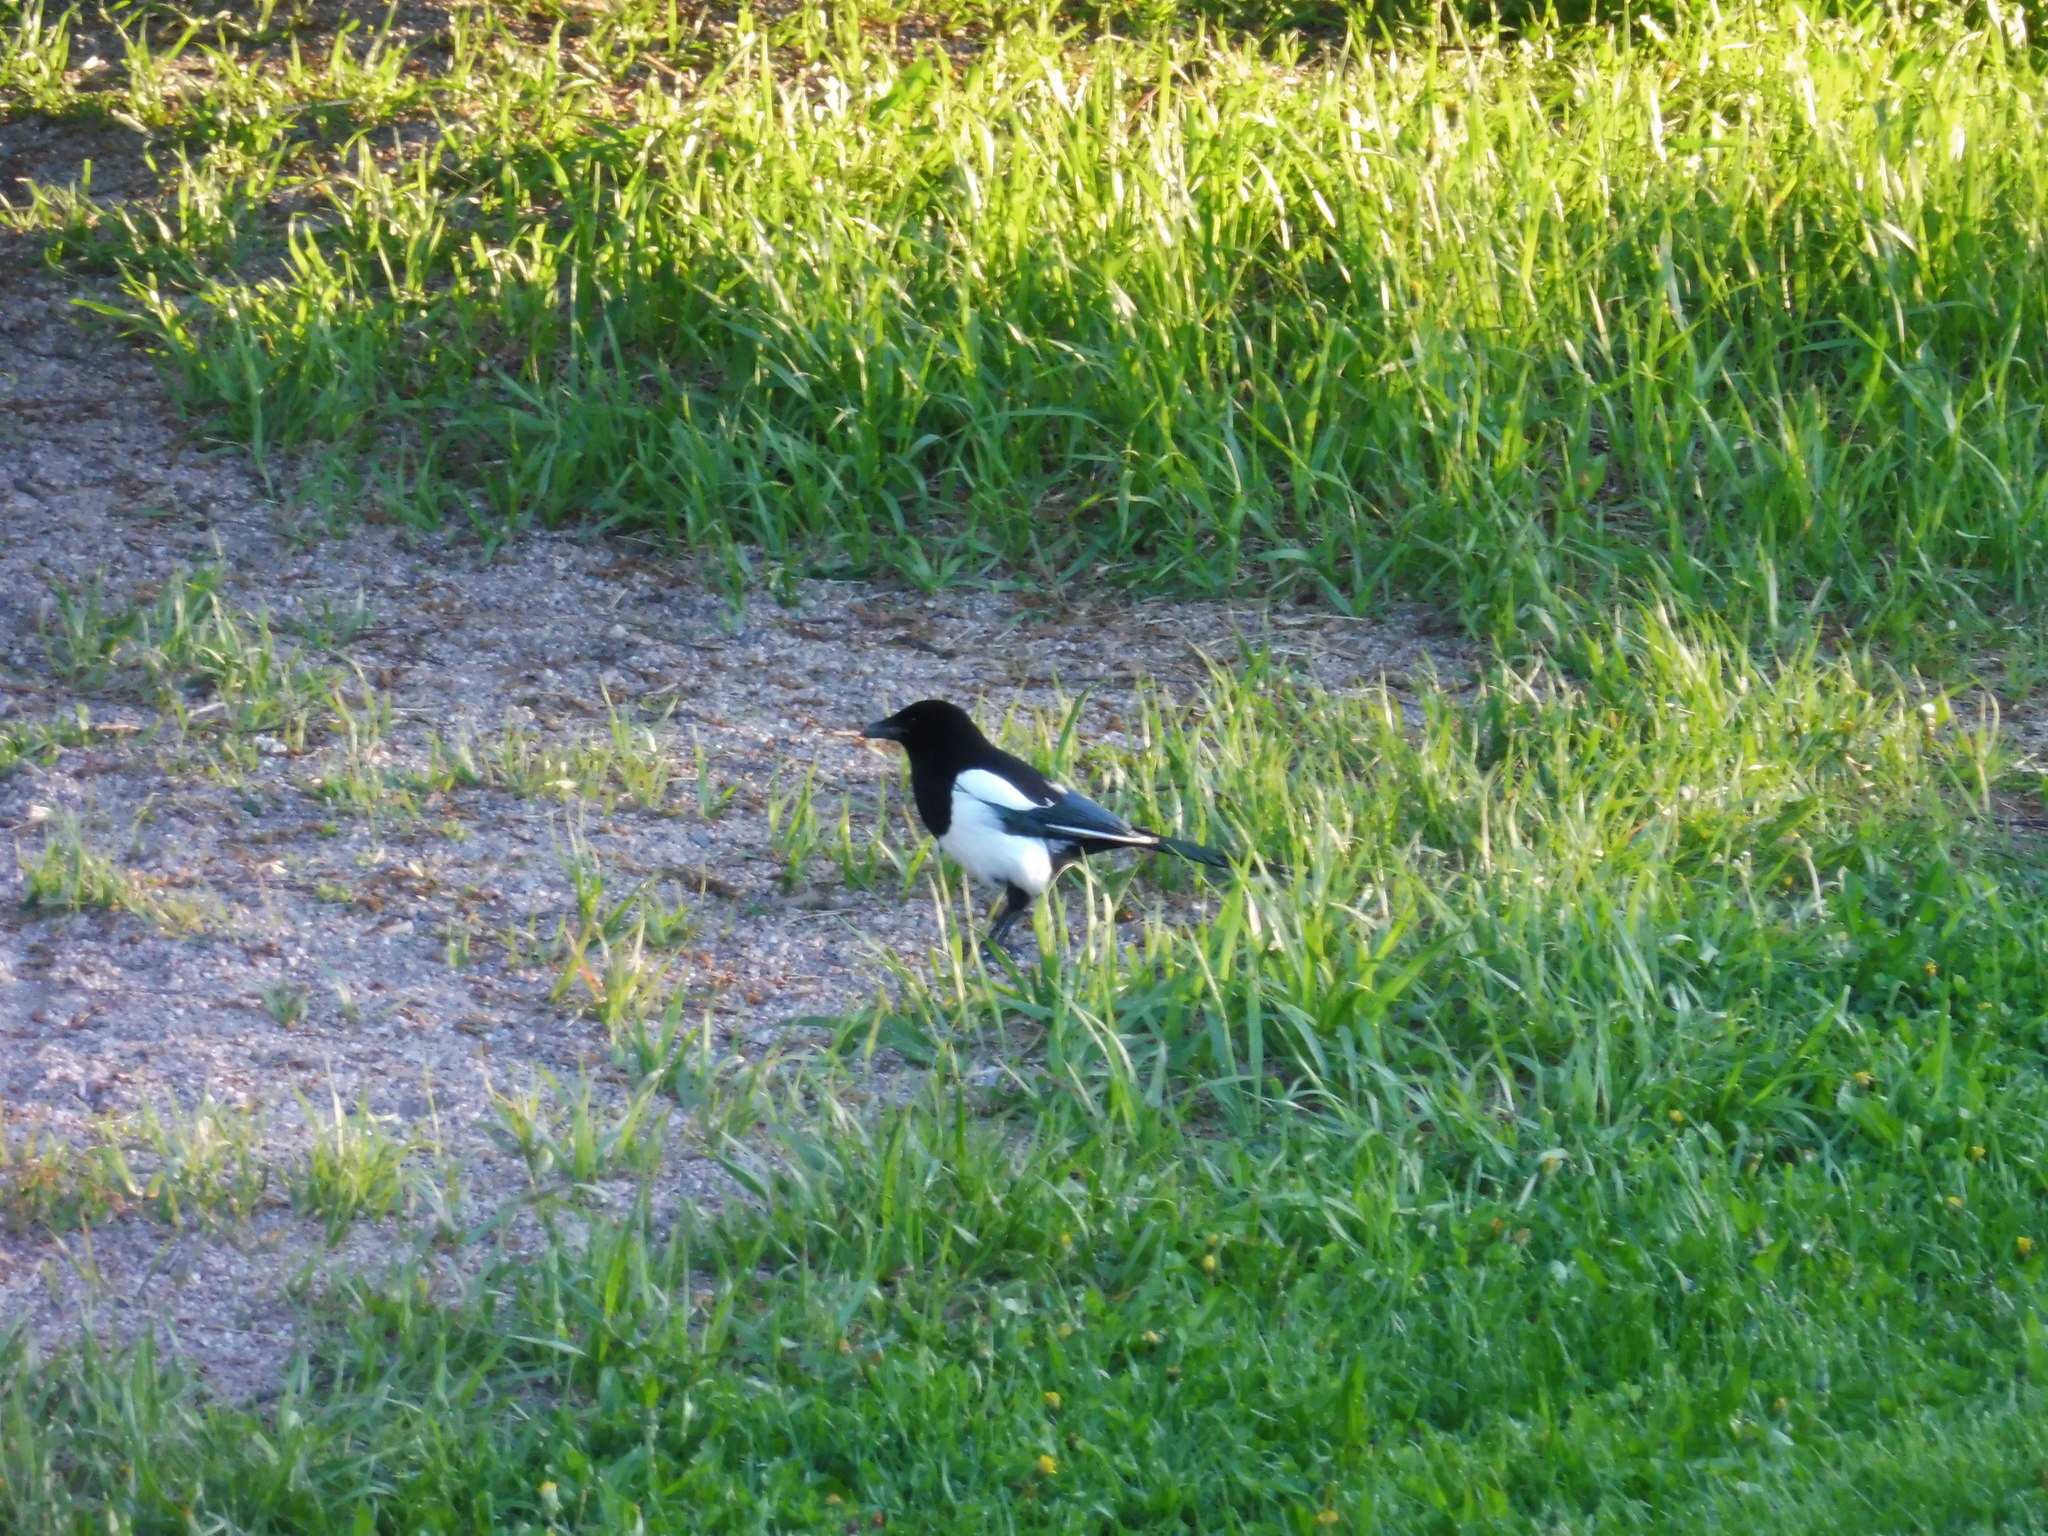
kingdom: Animalia
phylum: Chordata
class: Aves
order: Passeriformes
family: Corvidae
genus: Pica
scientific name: Pica pica
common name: Eurasian magpie
